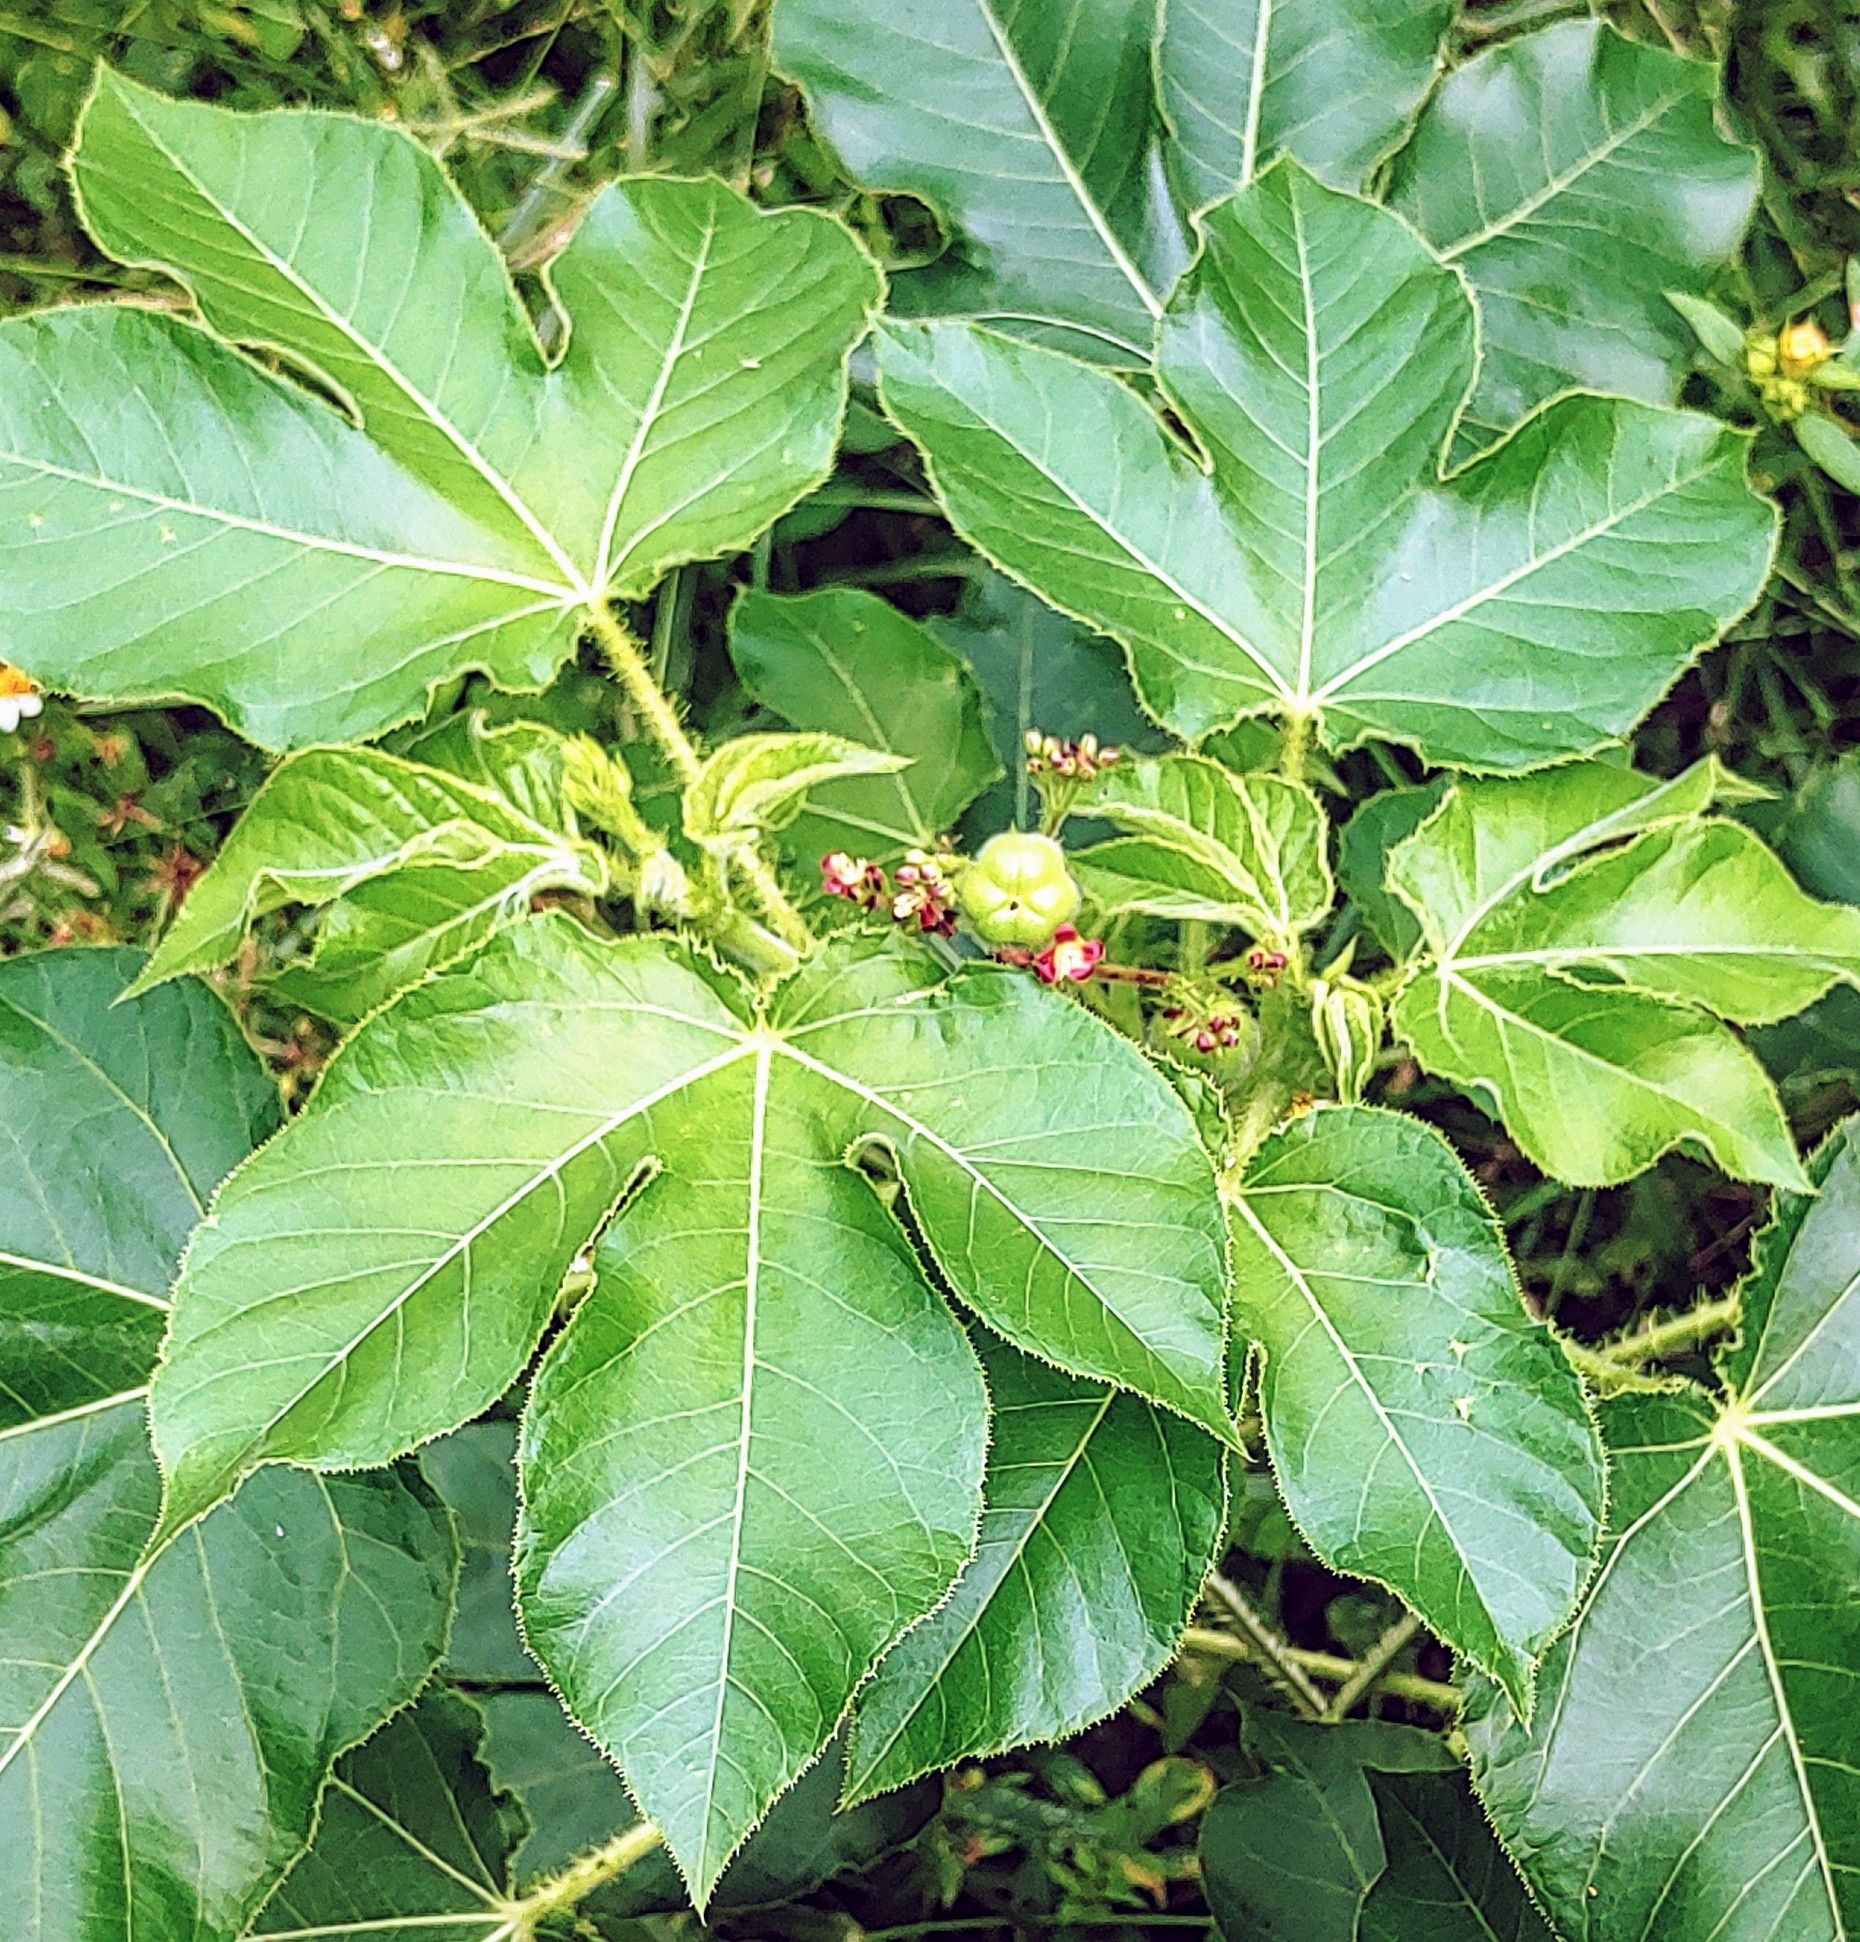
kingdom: Plantae
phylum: Tracheophyta
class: Magnoliopsida
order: Malpighiales
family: Euphorbiaceae
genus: Jatropha
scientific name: Jatropha gossypiifolia
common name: Bellyache bush
